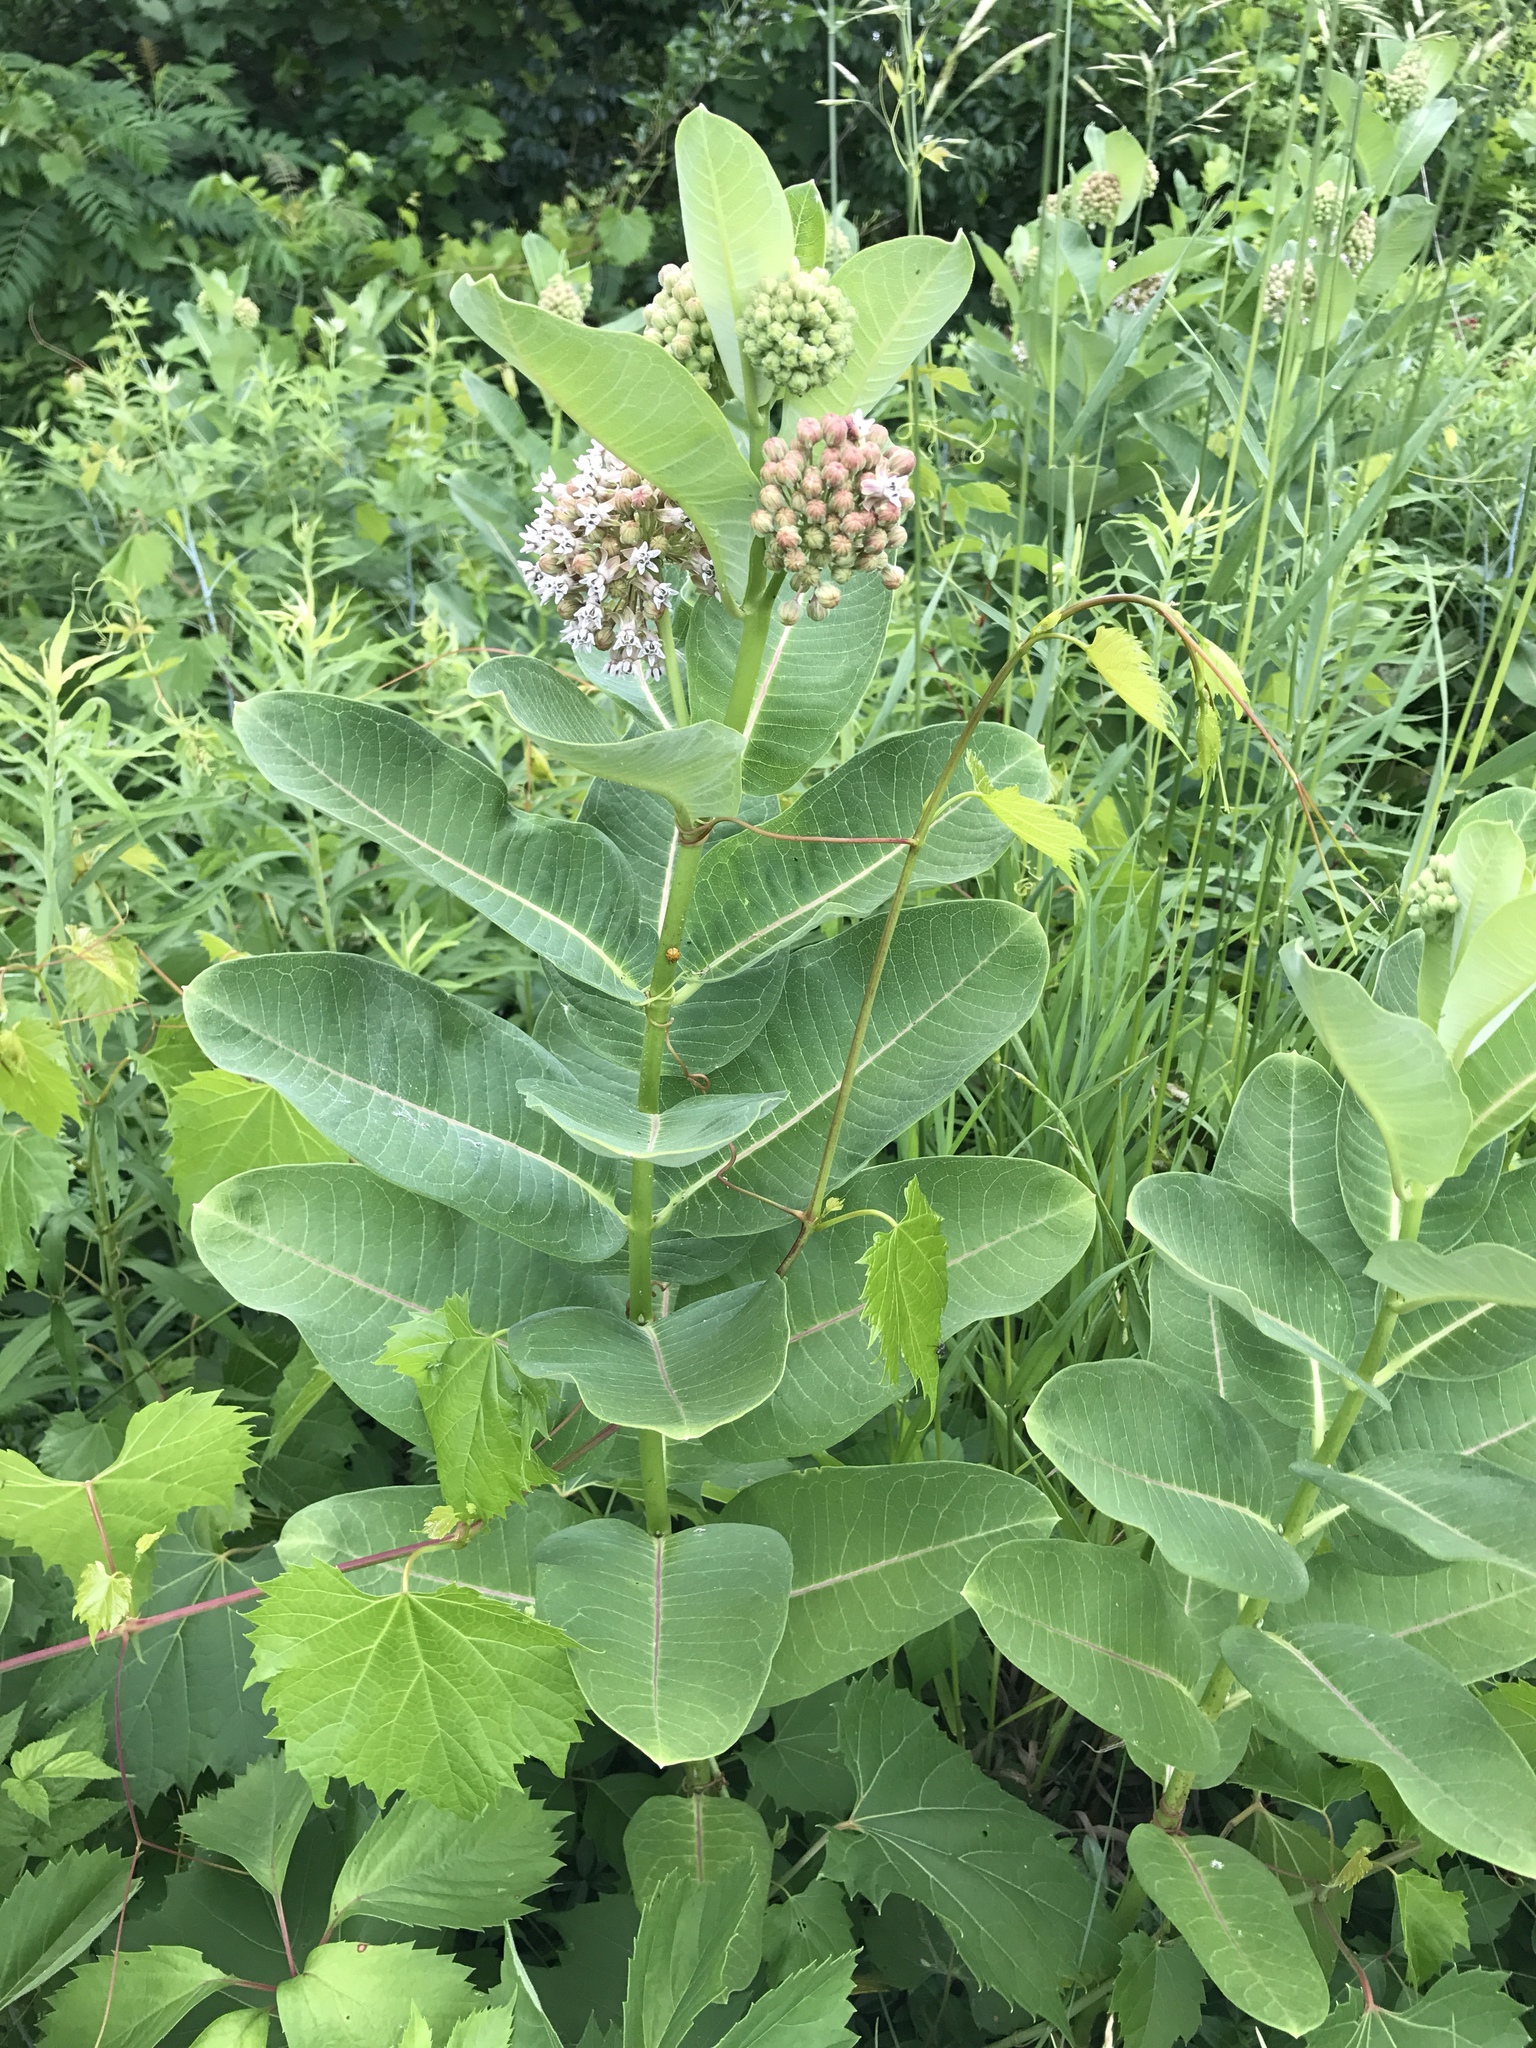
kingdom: Plantae
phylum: Tracheophyta
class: Magnoliopsida
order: Gentianales
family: Apocynaceae
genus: Asclepias
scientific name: Asclepias syriaca
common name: Common milkweed
